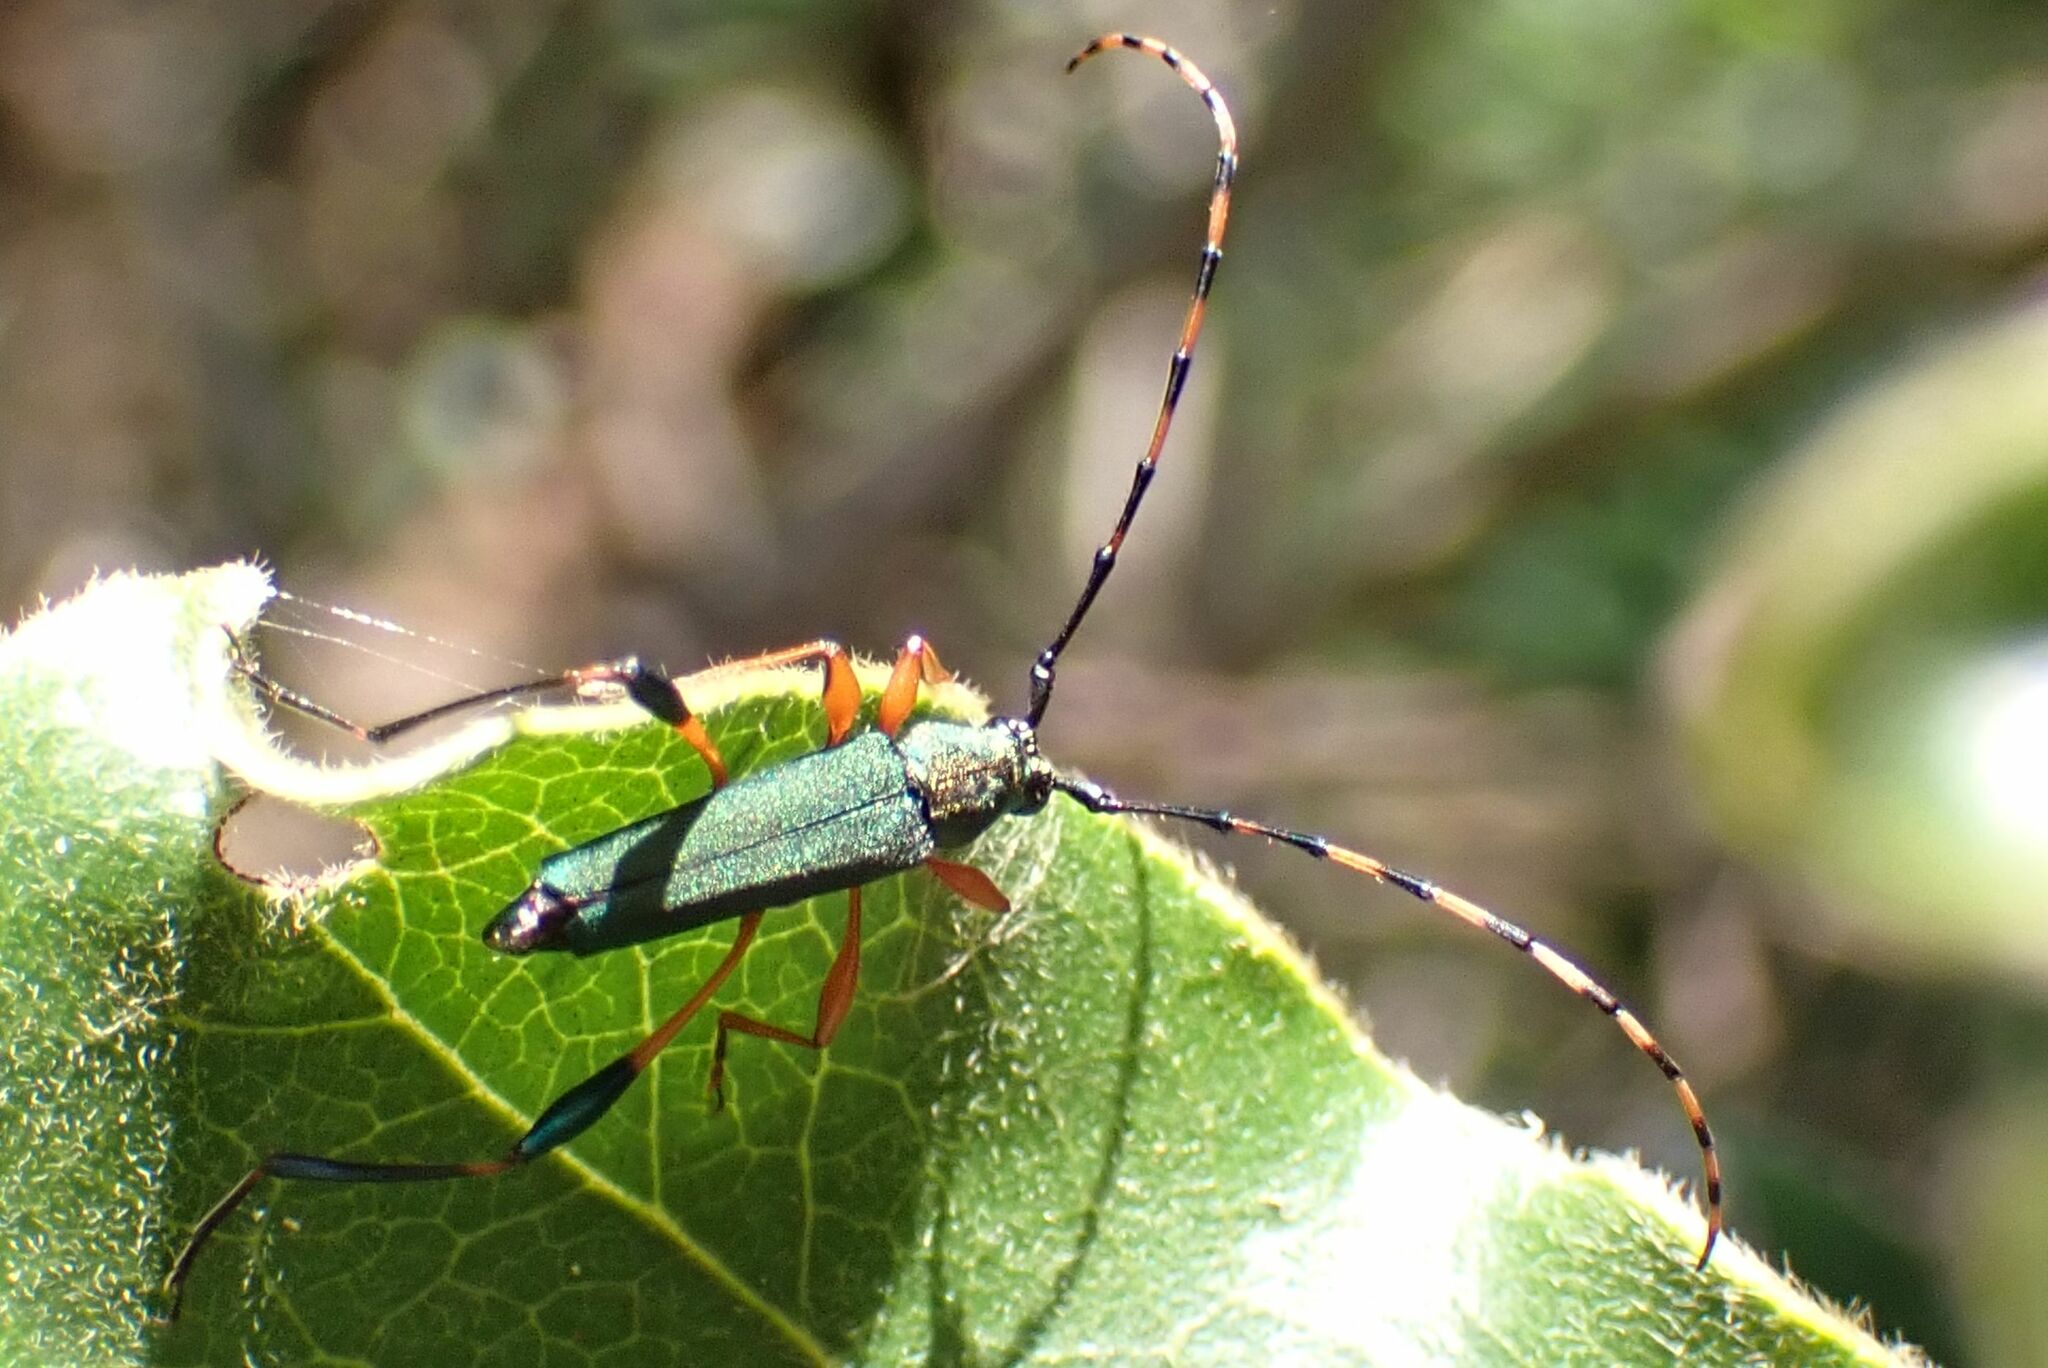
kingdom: Animalia
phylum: Arthropoda
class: Insecta
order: Coleoptera
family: Cerambycidae
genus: Litopus
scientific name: Litopus latipes
